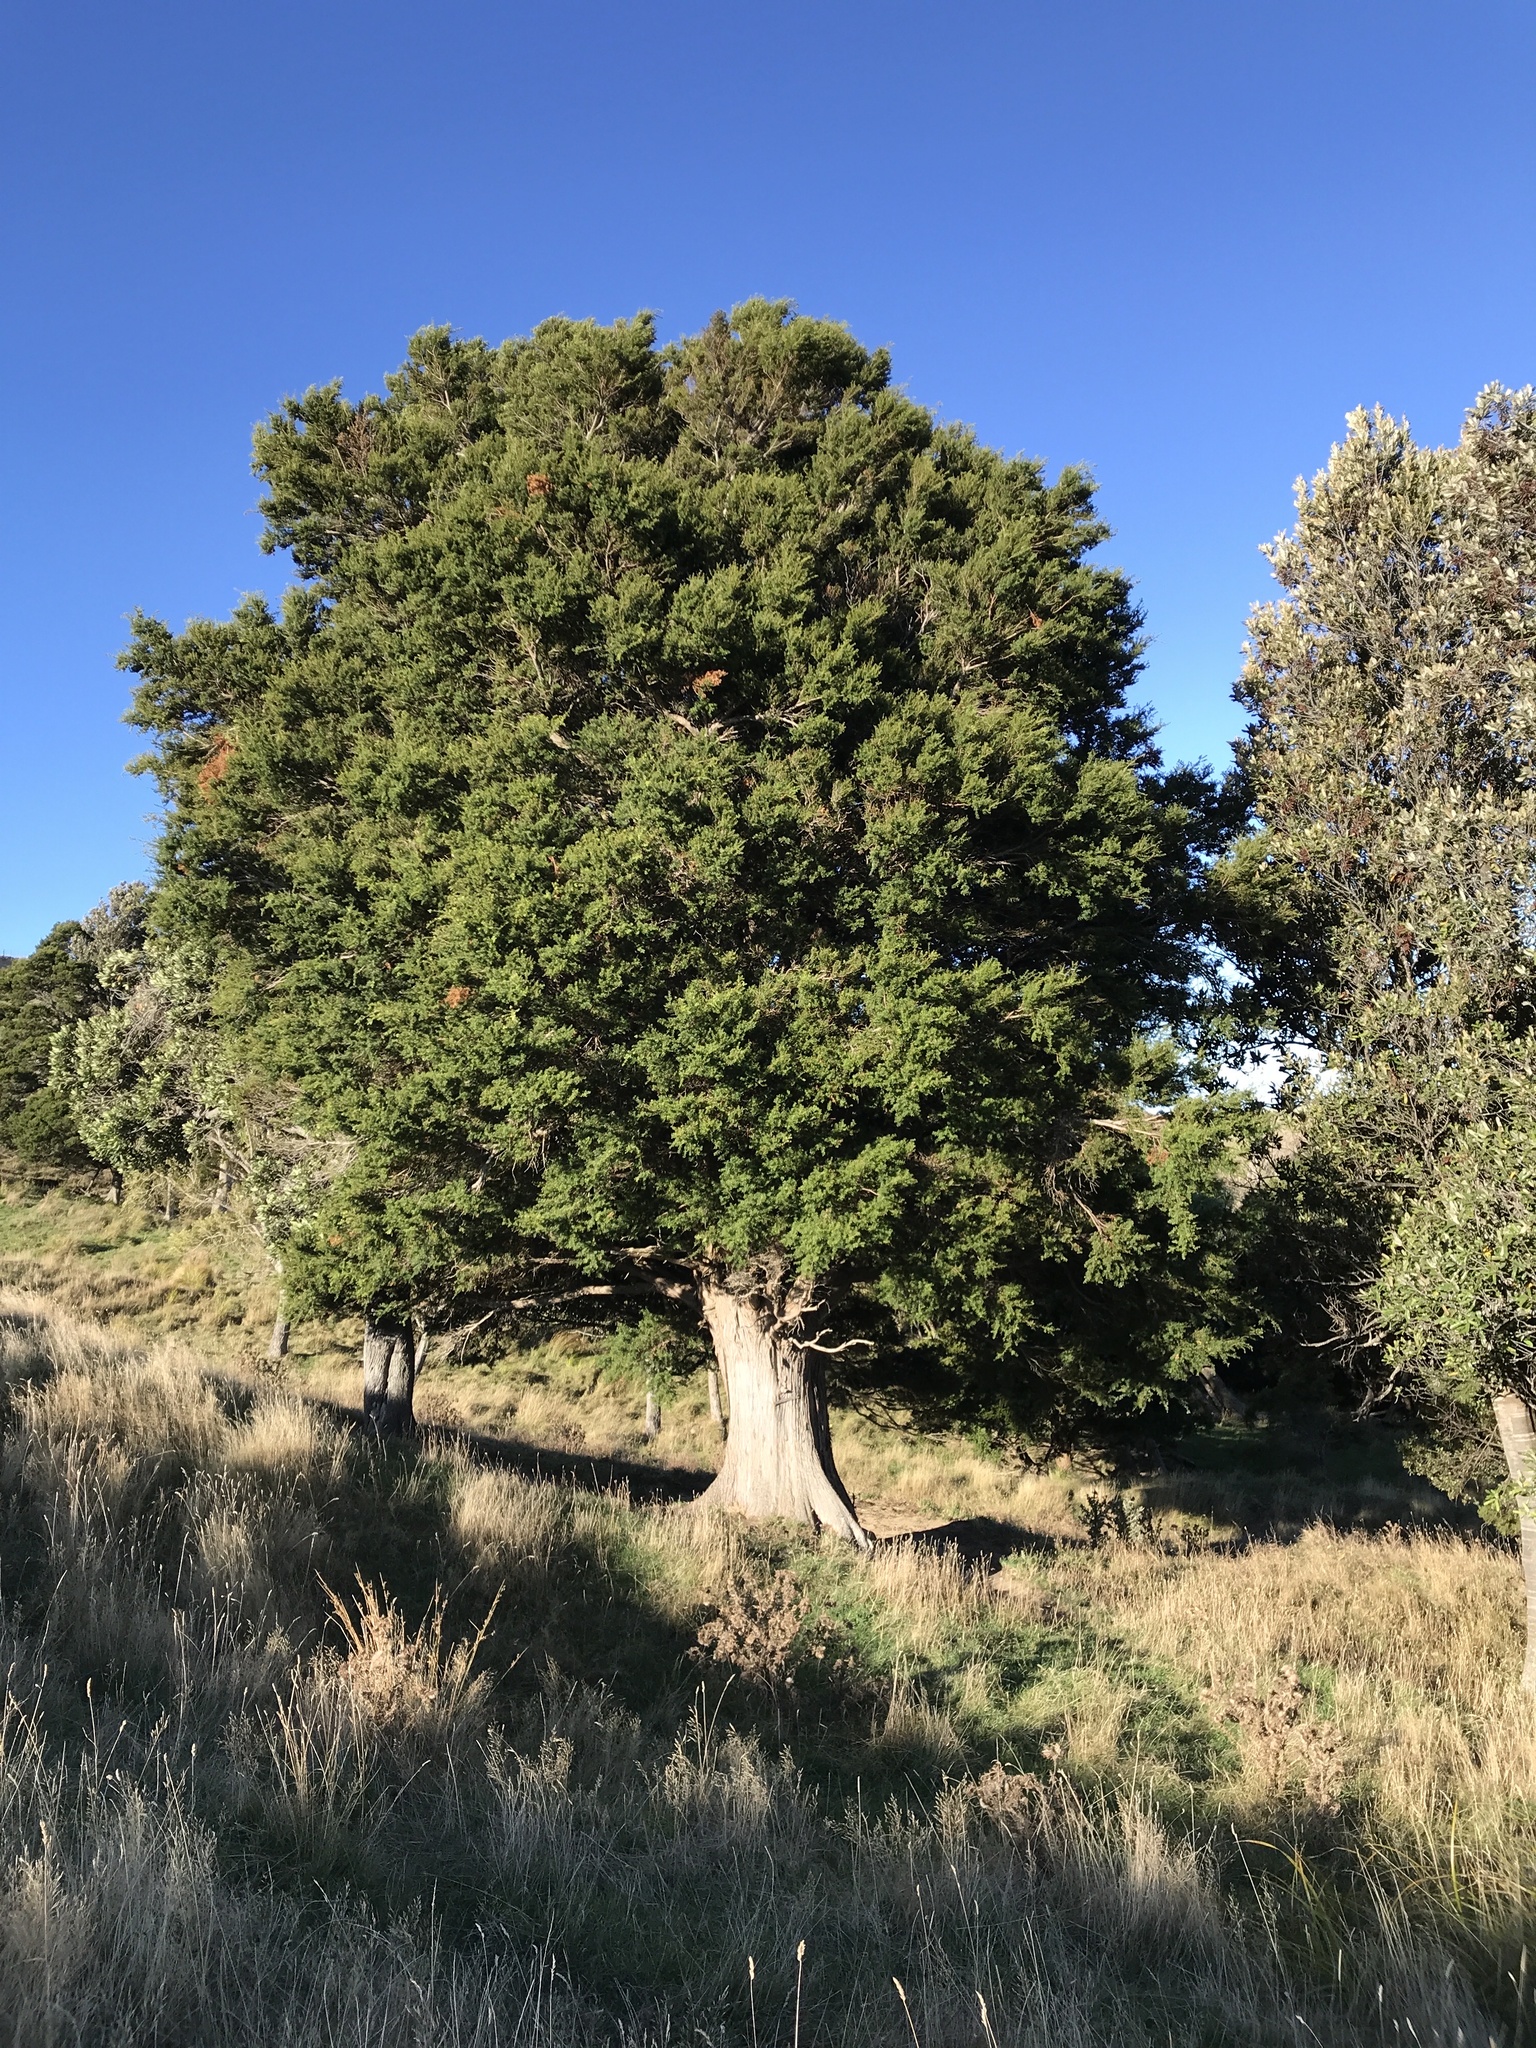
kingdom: Plantae
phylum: Tracheophyta
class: Pinopsida
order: Pinales
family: Podocarpaceae
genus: Podocarpus
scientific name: Podocarpus totara
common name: Totara
